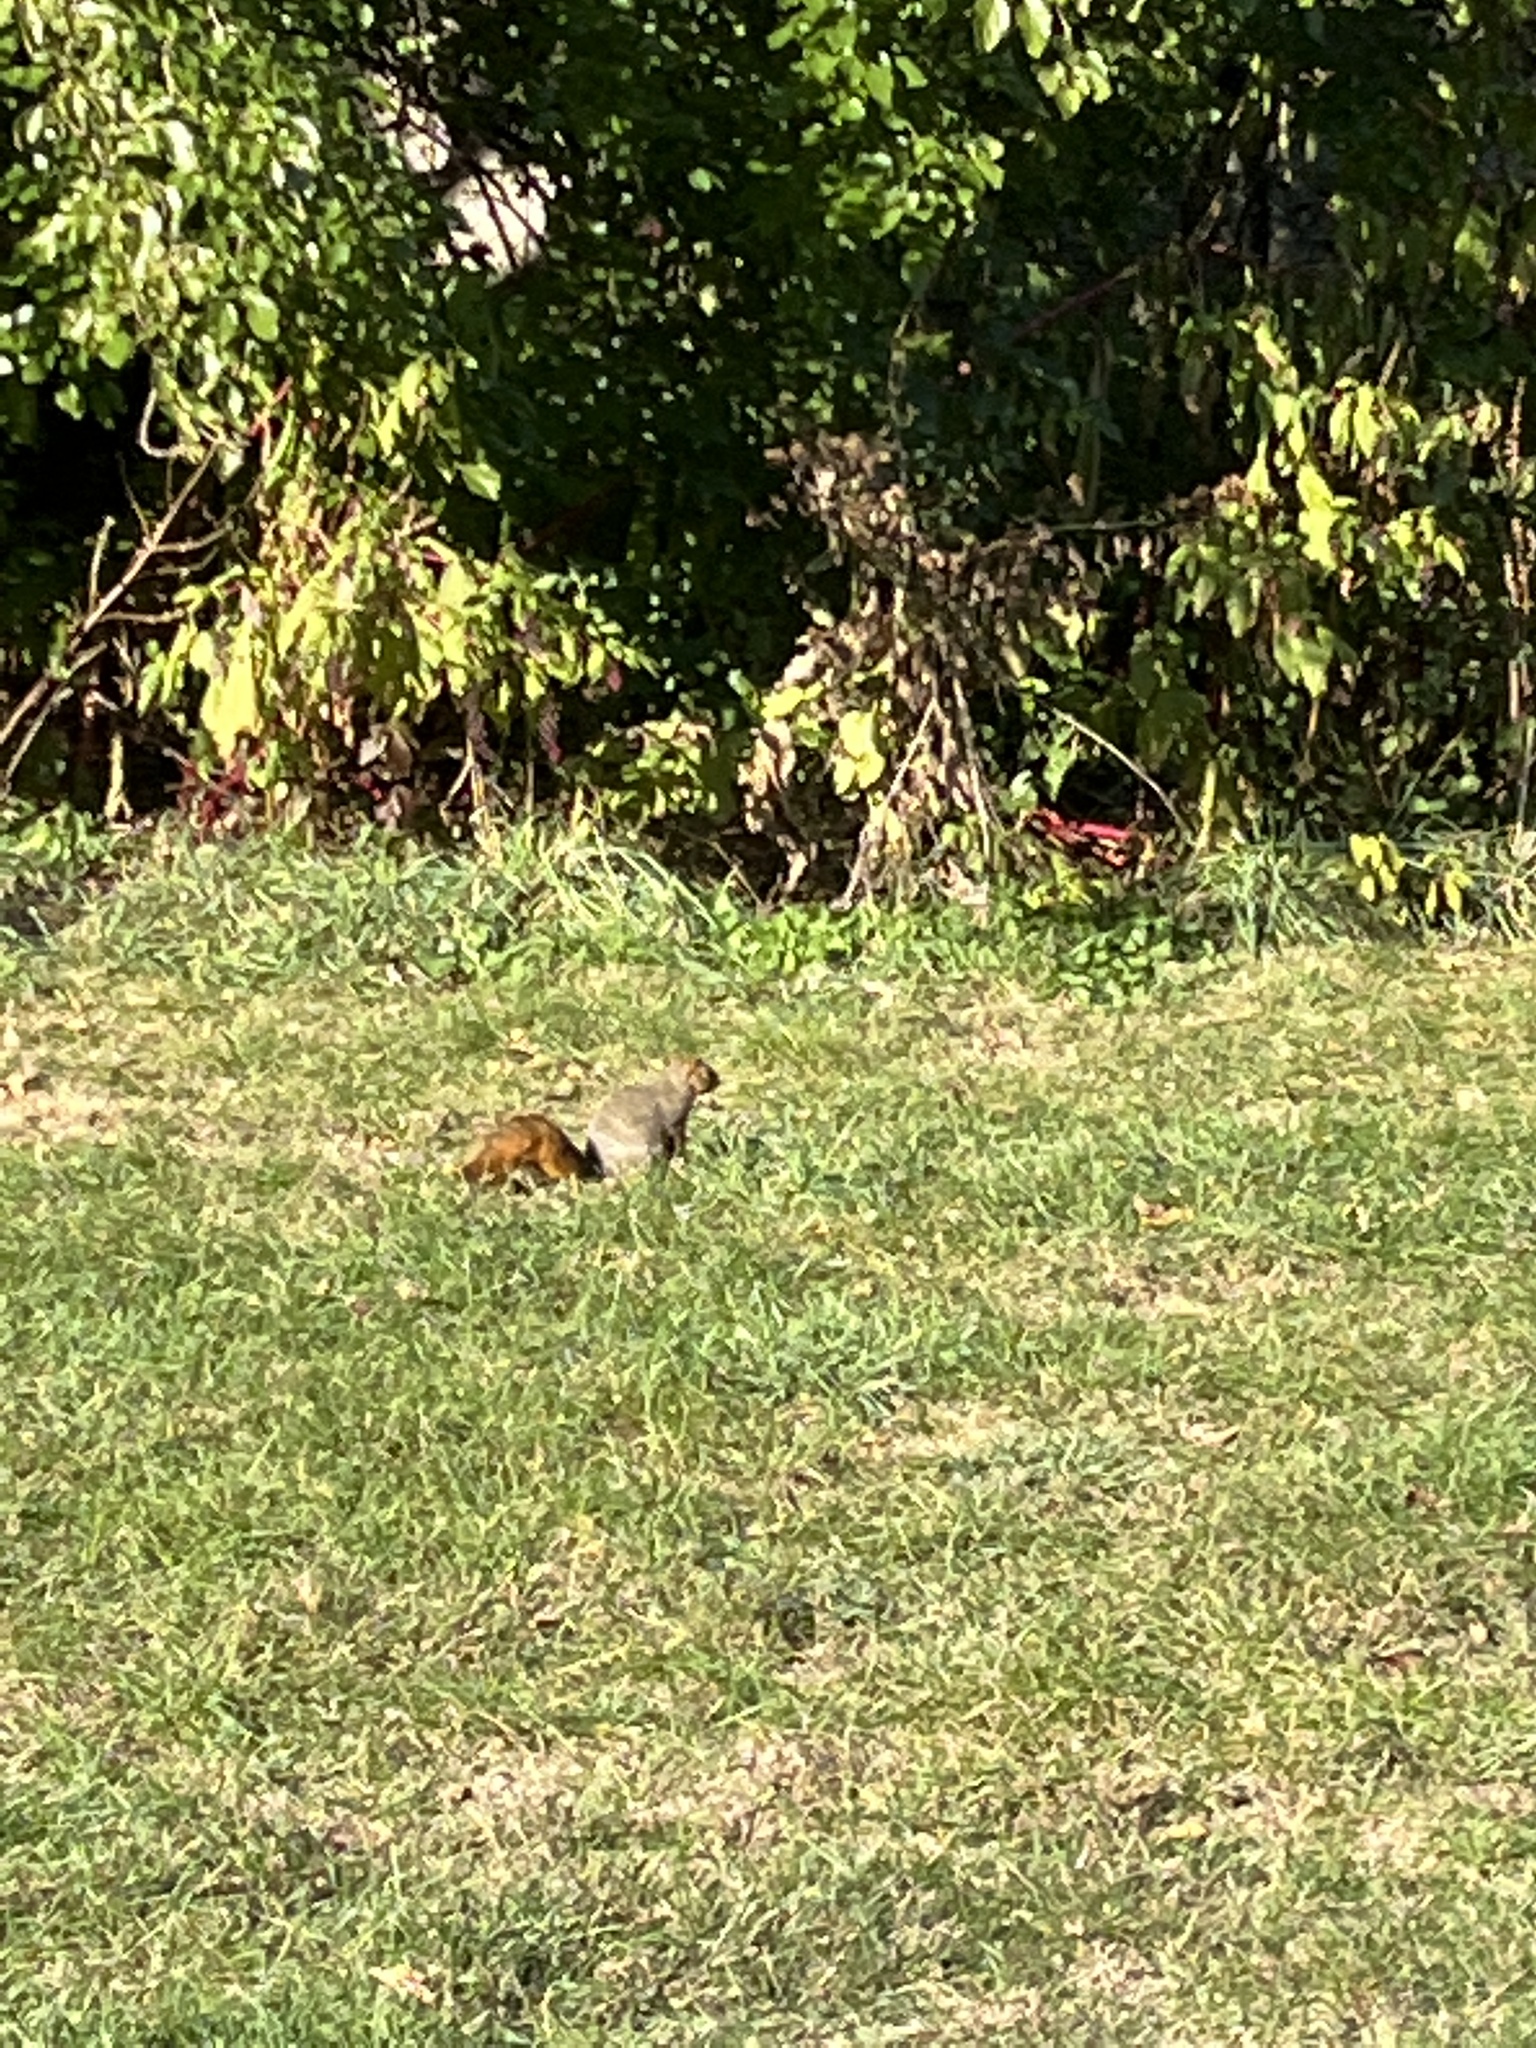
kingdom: Animalia
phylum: Chordata
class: Mammalia
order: Rodentia
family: Sciuridae
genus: Sciurus
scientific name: Sciurus niger
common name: Fox squirrel
